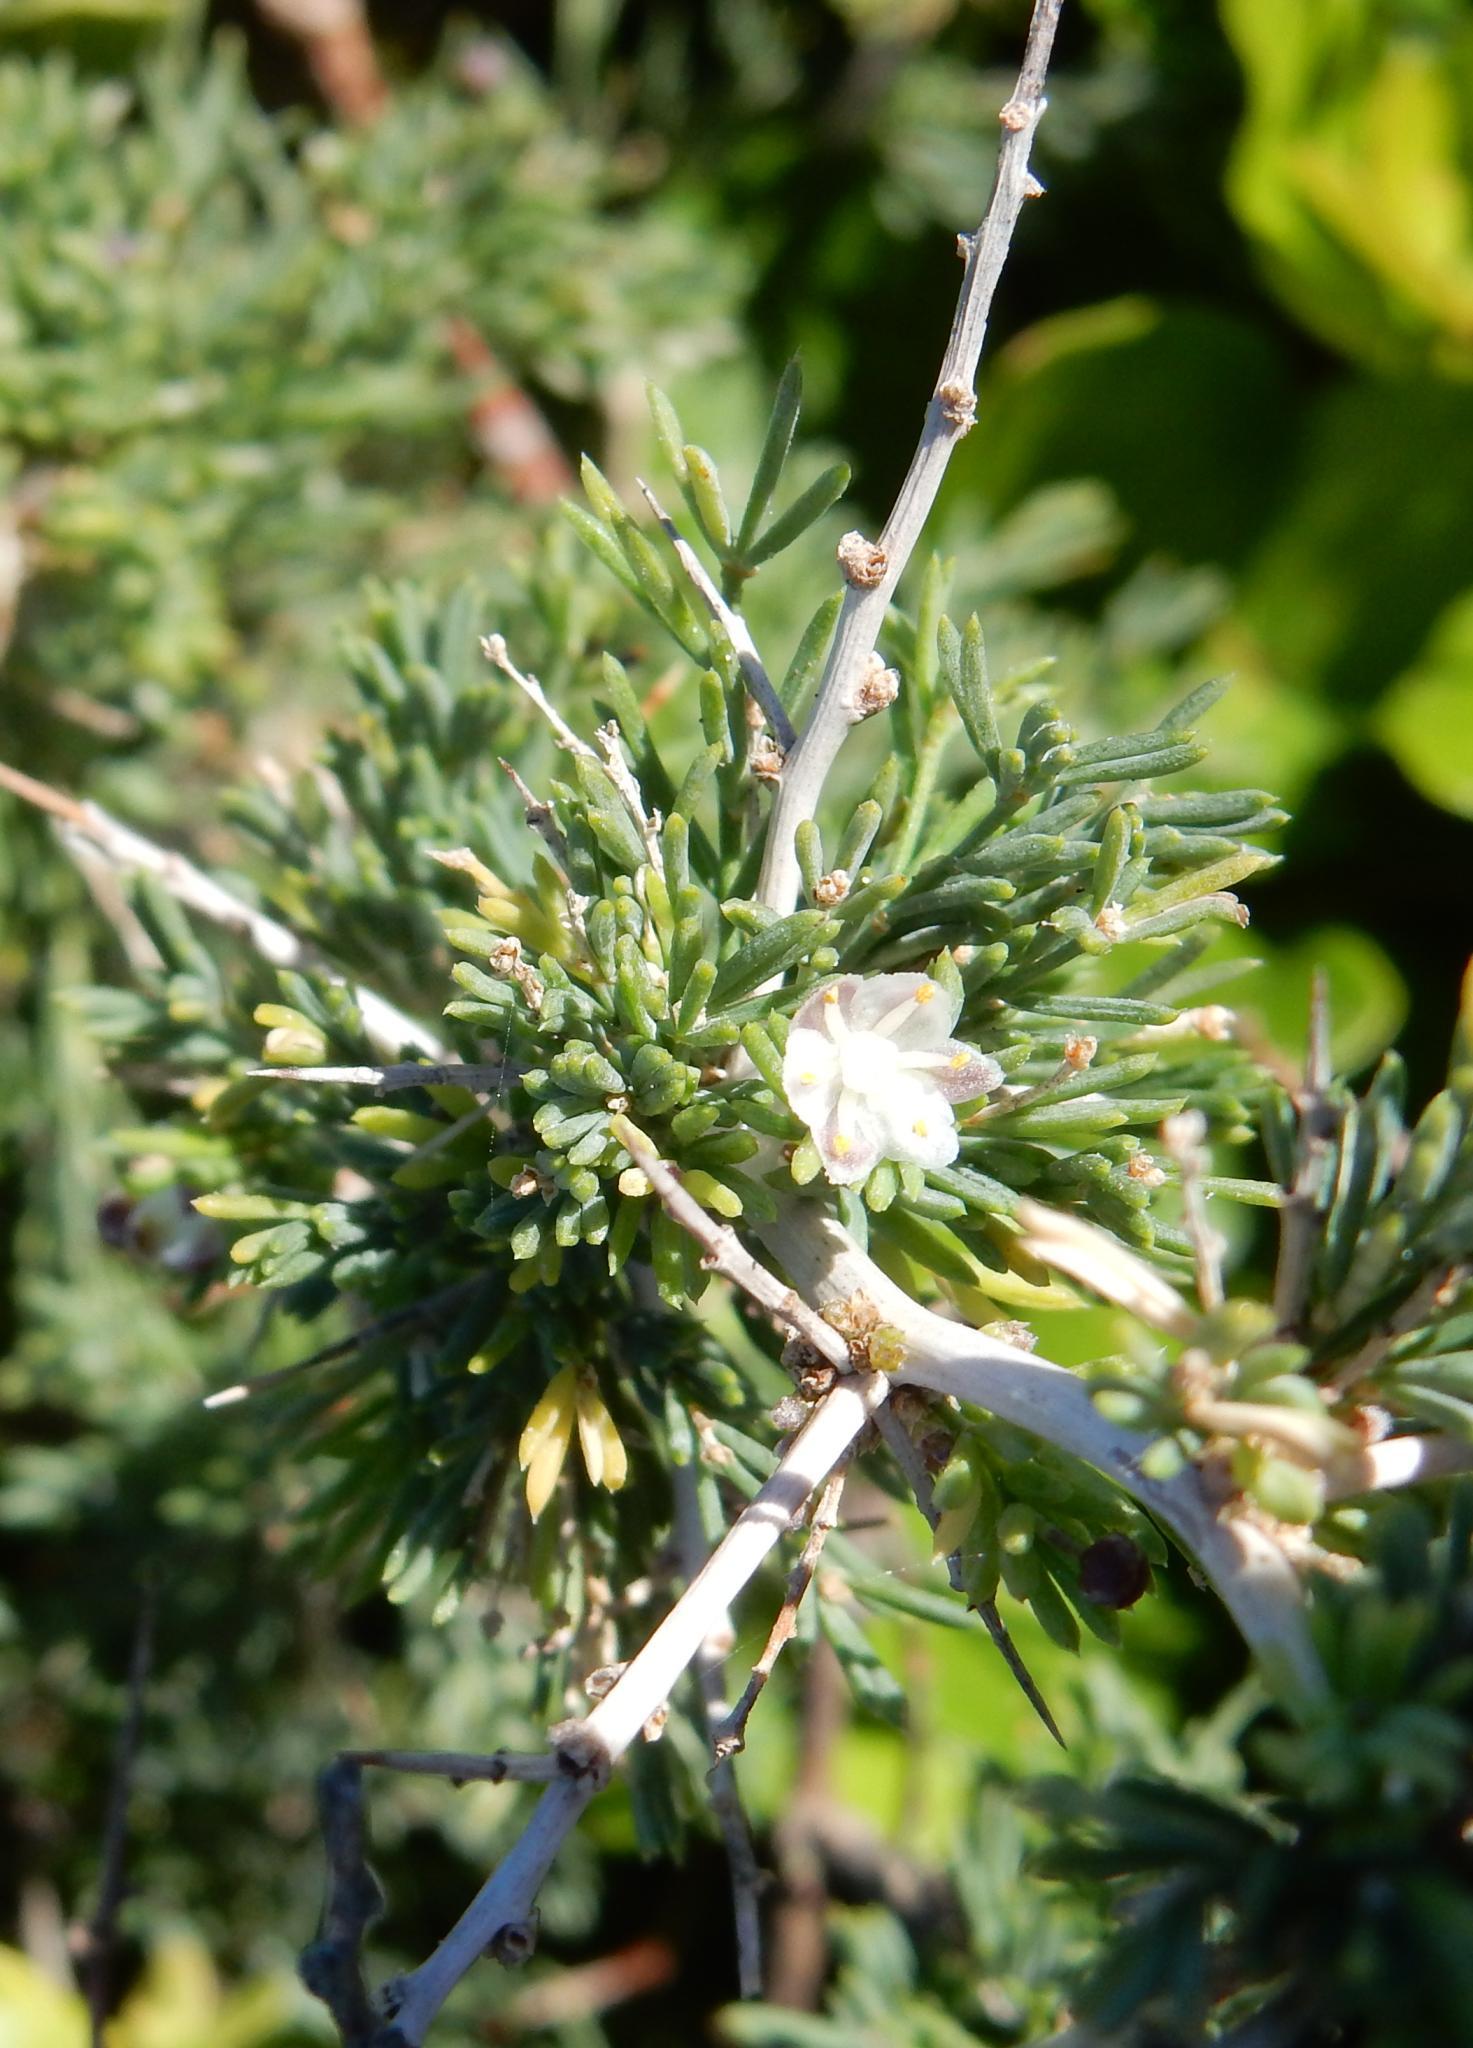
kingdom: Plantae
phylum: Tracheophyta
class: Liliopsida
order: Asparagales
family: Asparagaceae
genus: Asparagus
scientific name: Asparagus suaveolens
